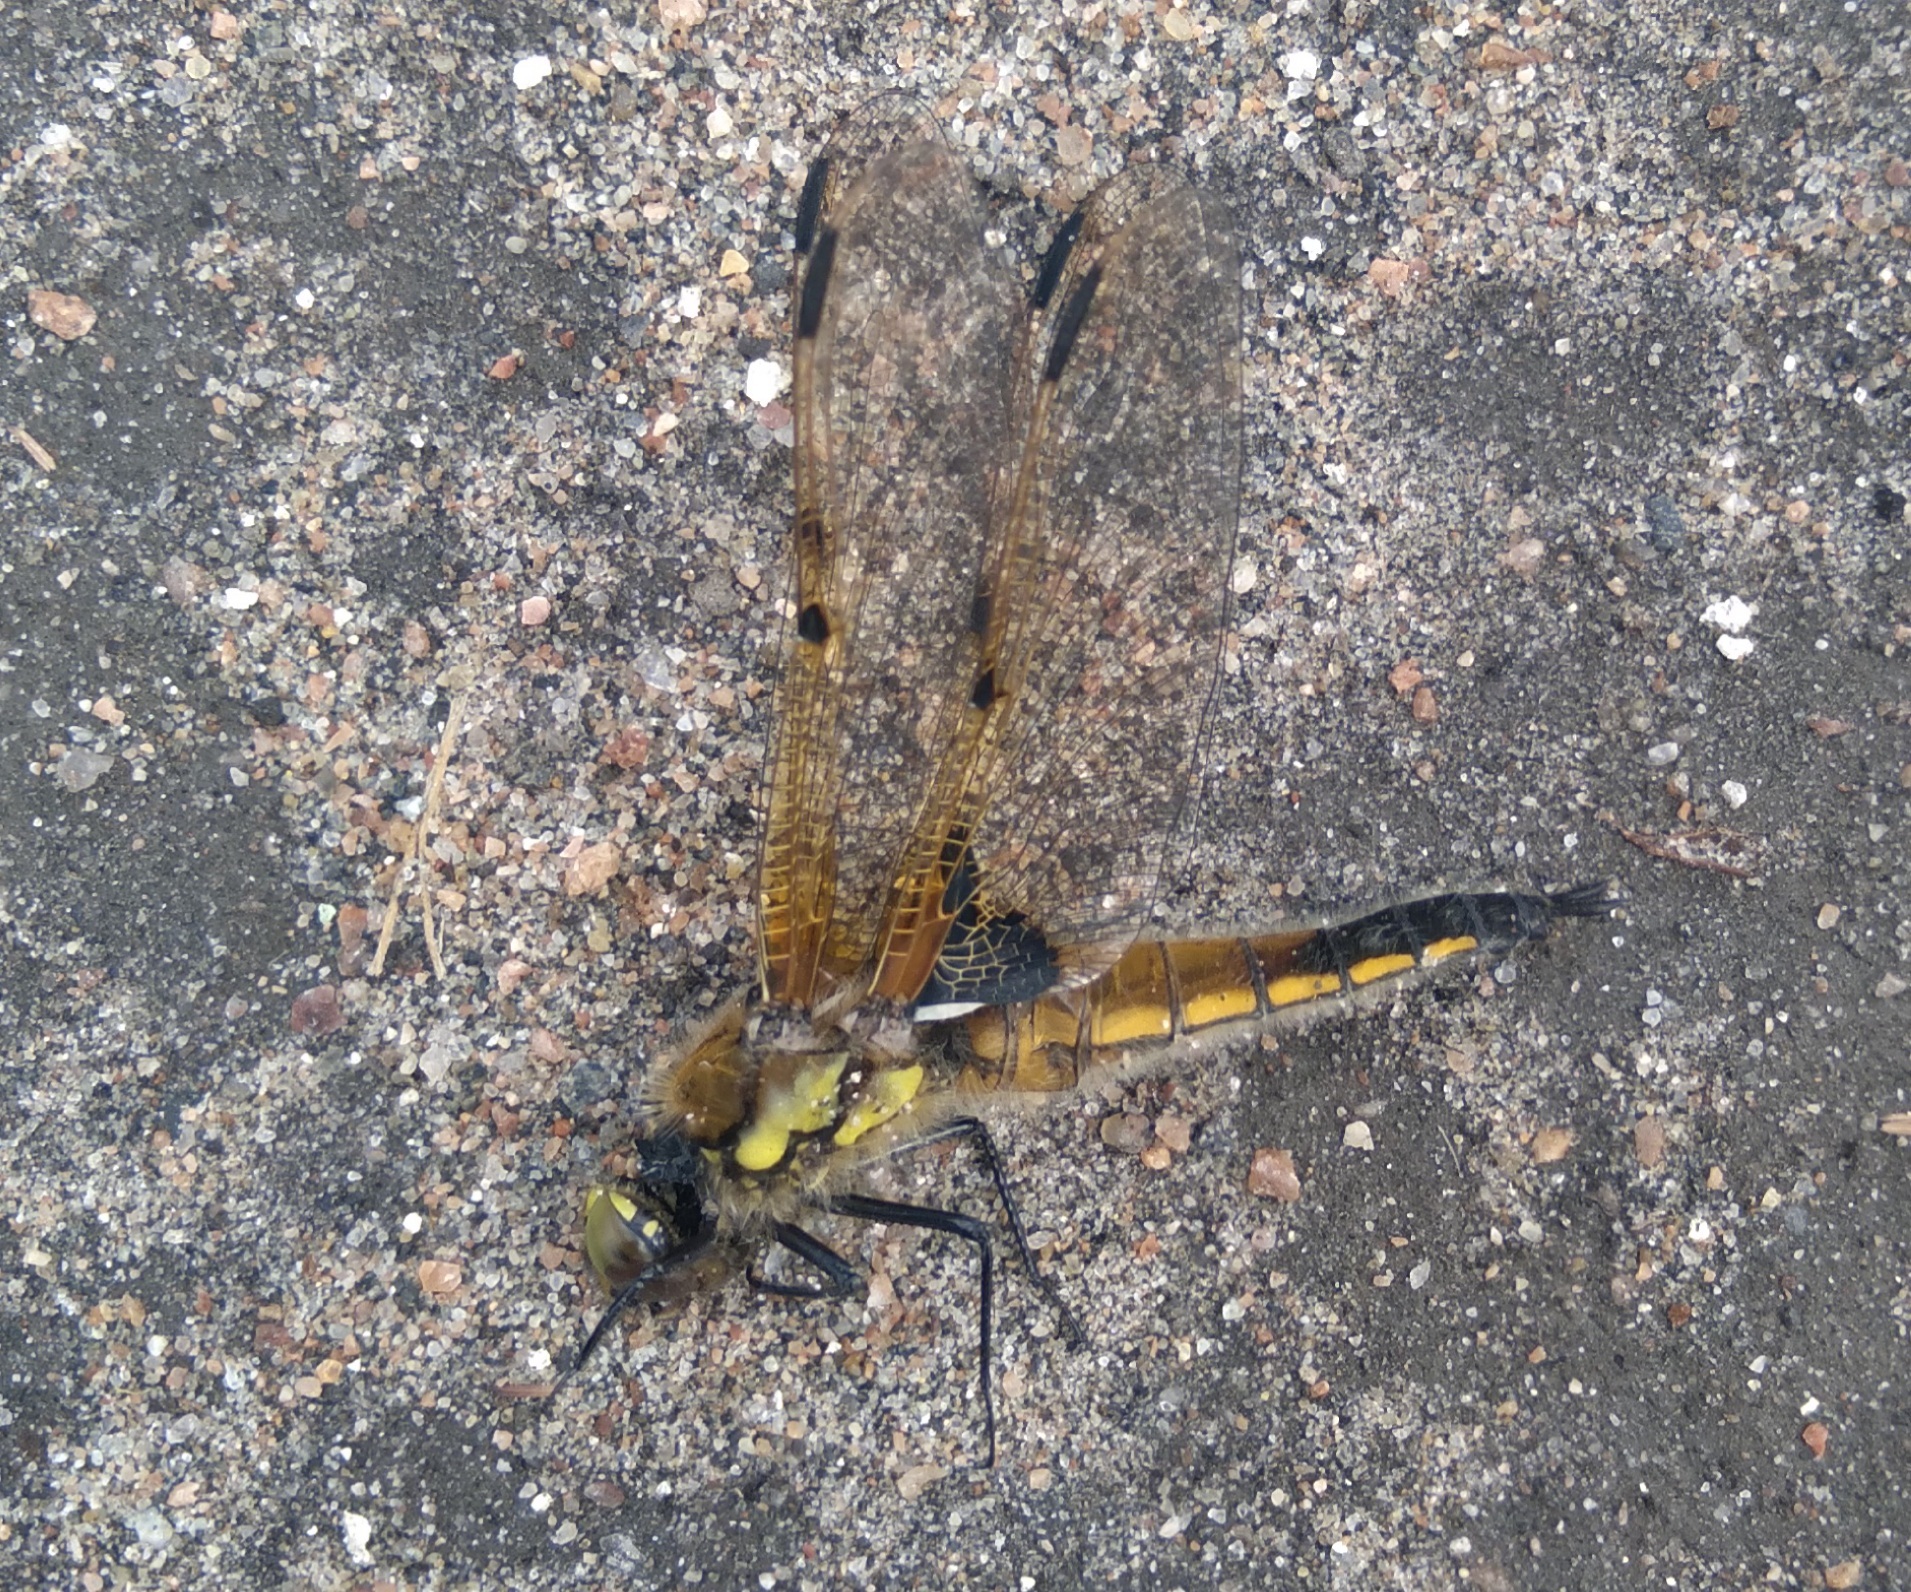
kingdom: Animalia
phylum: Arthropoda
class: Insecta
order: Odonata
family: Libellulidae
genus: Libellula
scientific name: Libellula quadrimaculata
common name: Four-spotted chaser
